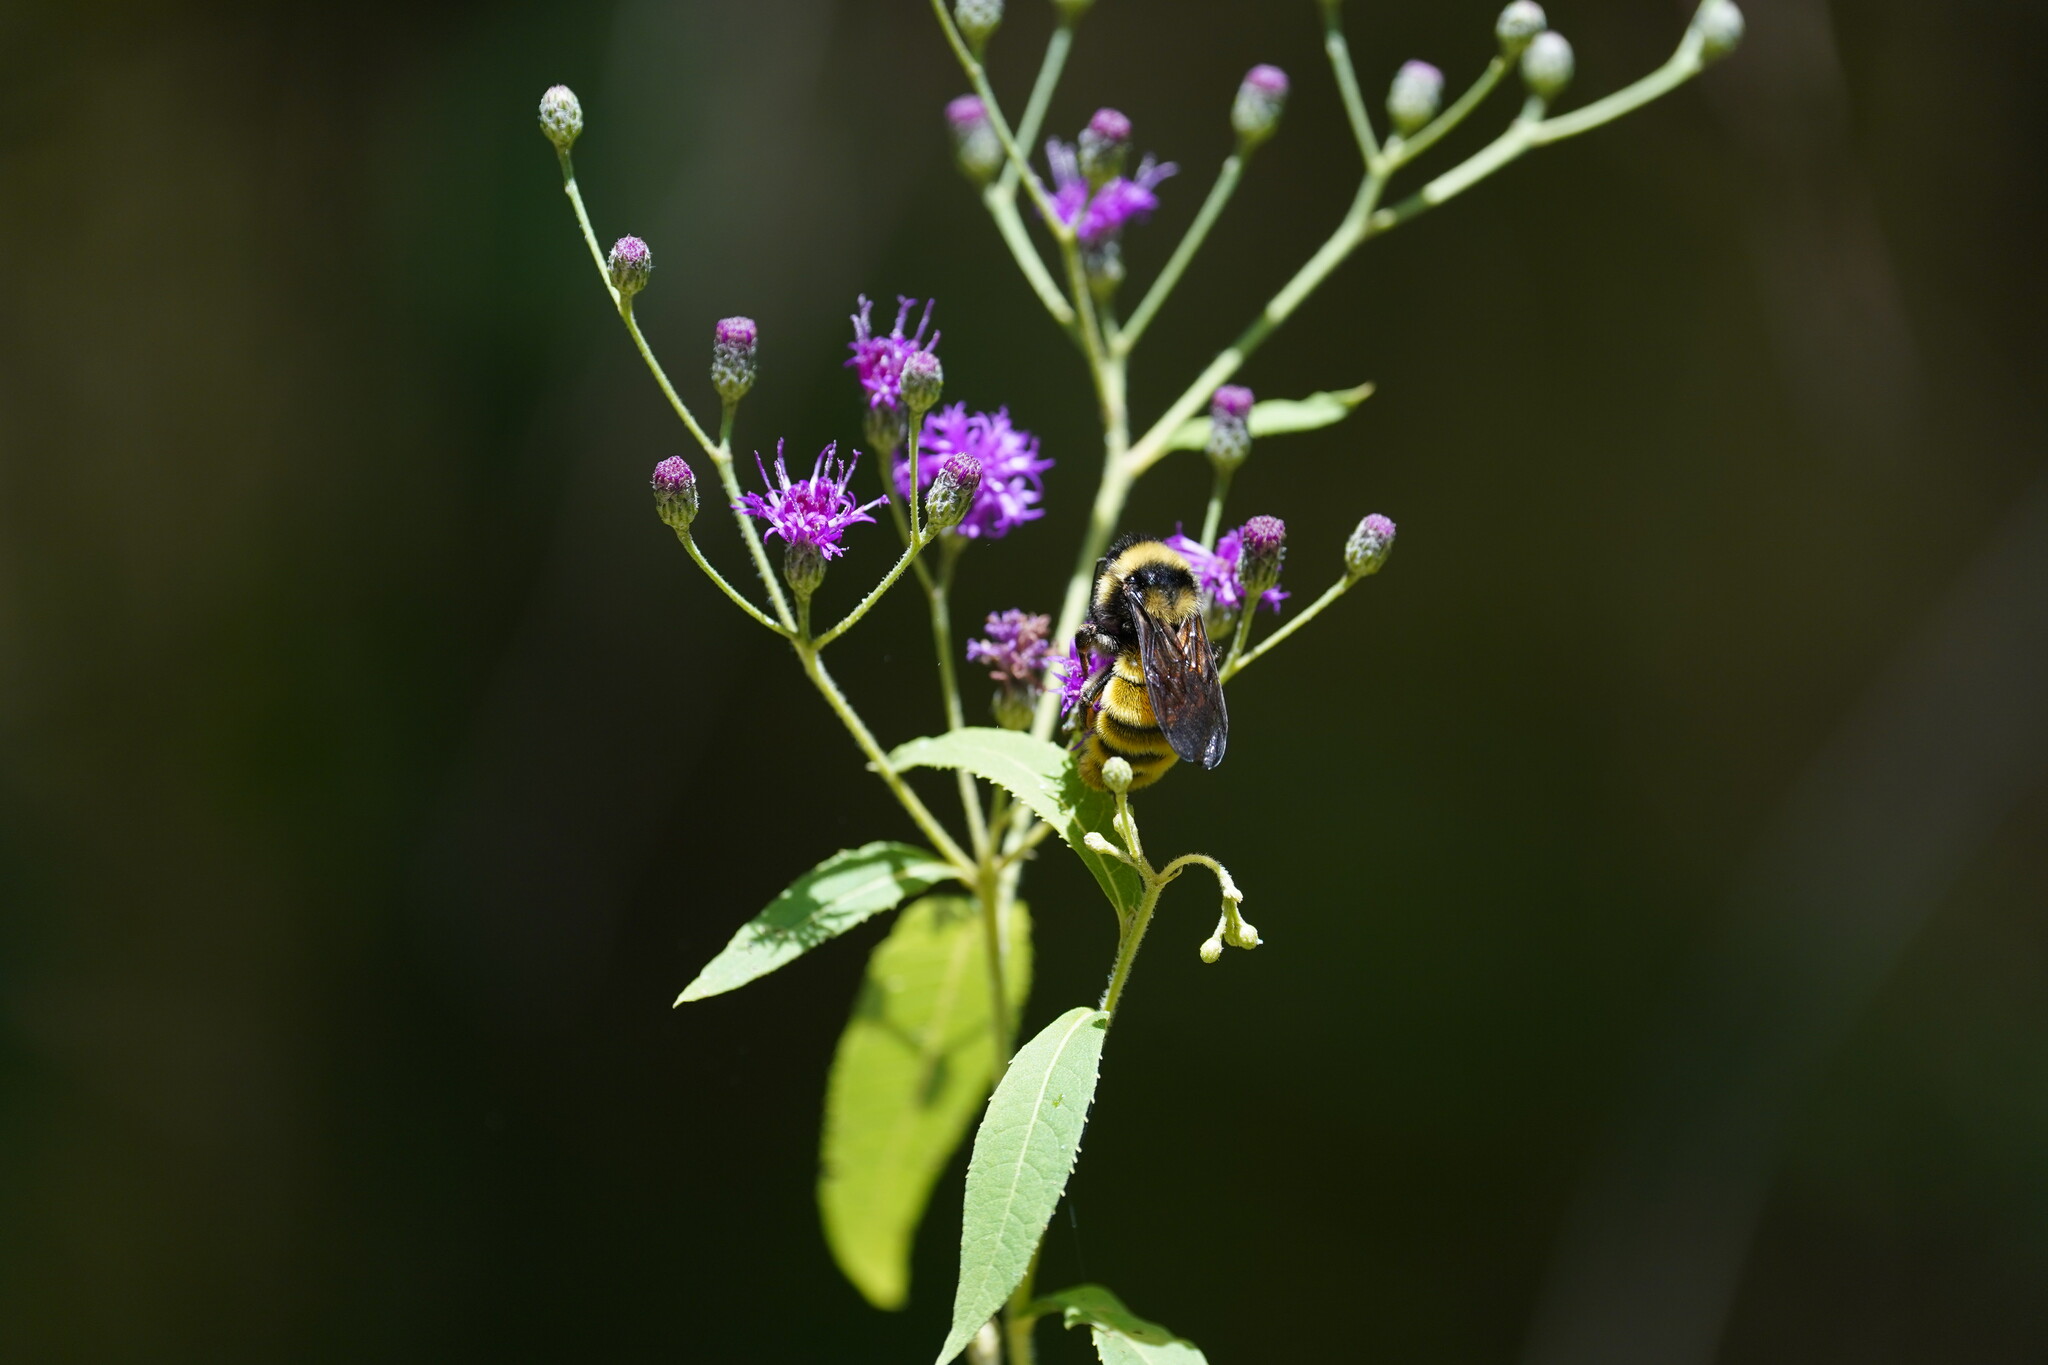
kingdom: Animalia
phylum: Arthropoda
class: Insecta
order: Hymenoptera
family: Apidae
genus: Bombus
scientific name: Bombus pensylvanicus
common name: Bumble bee
